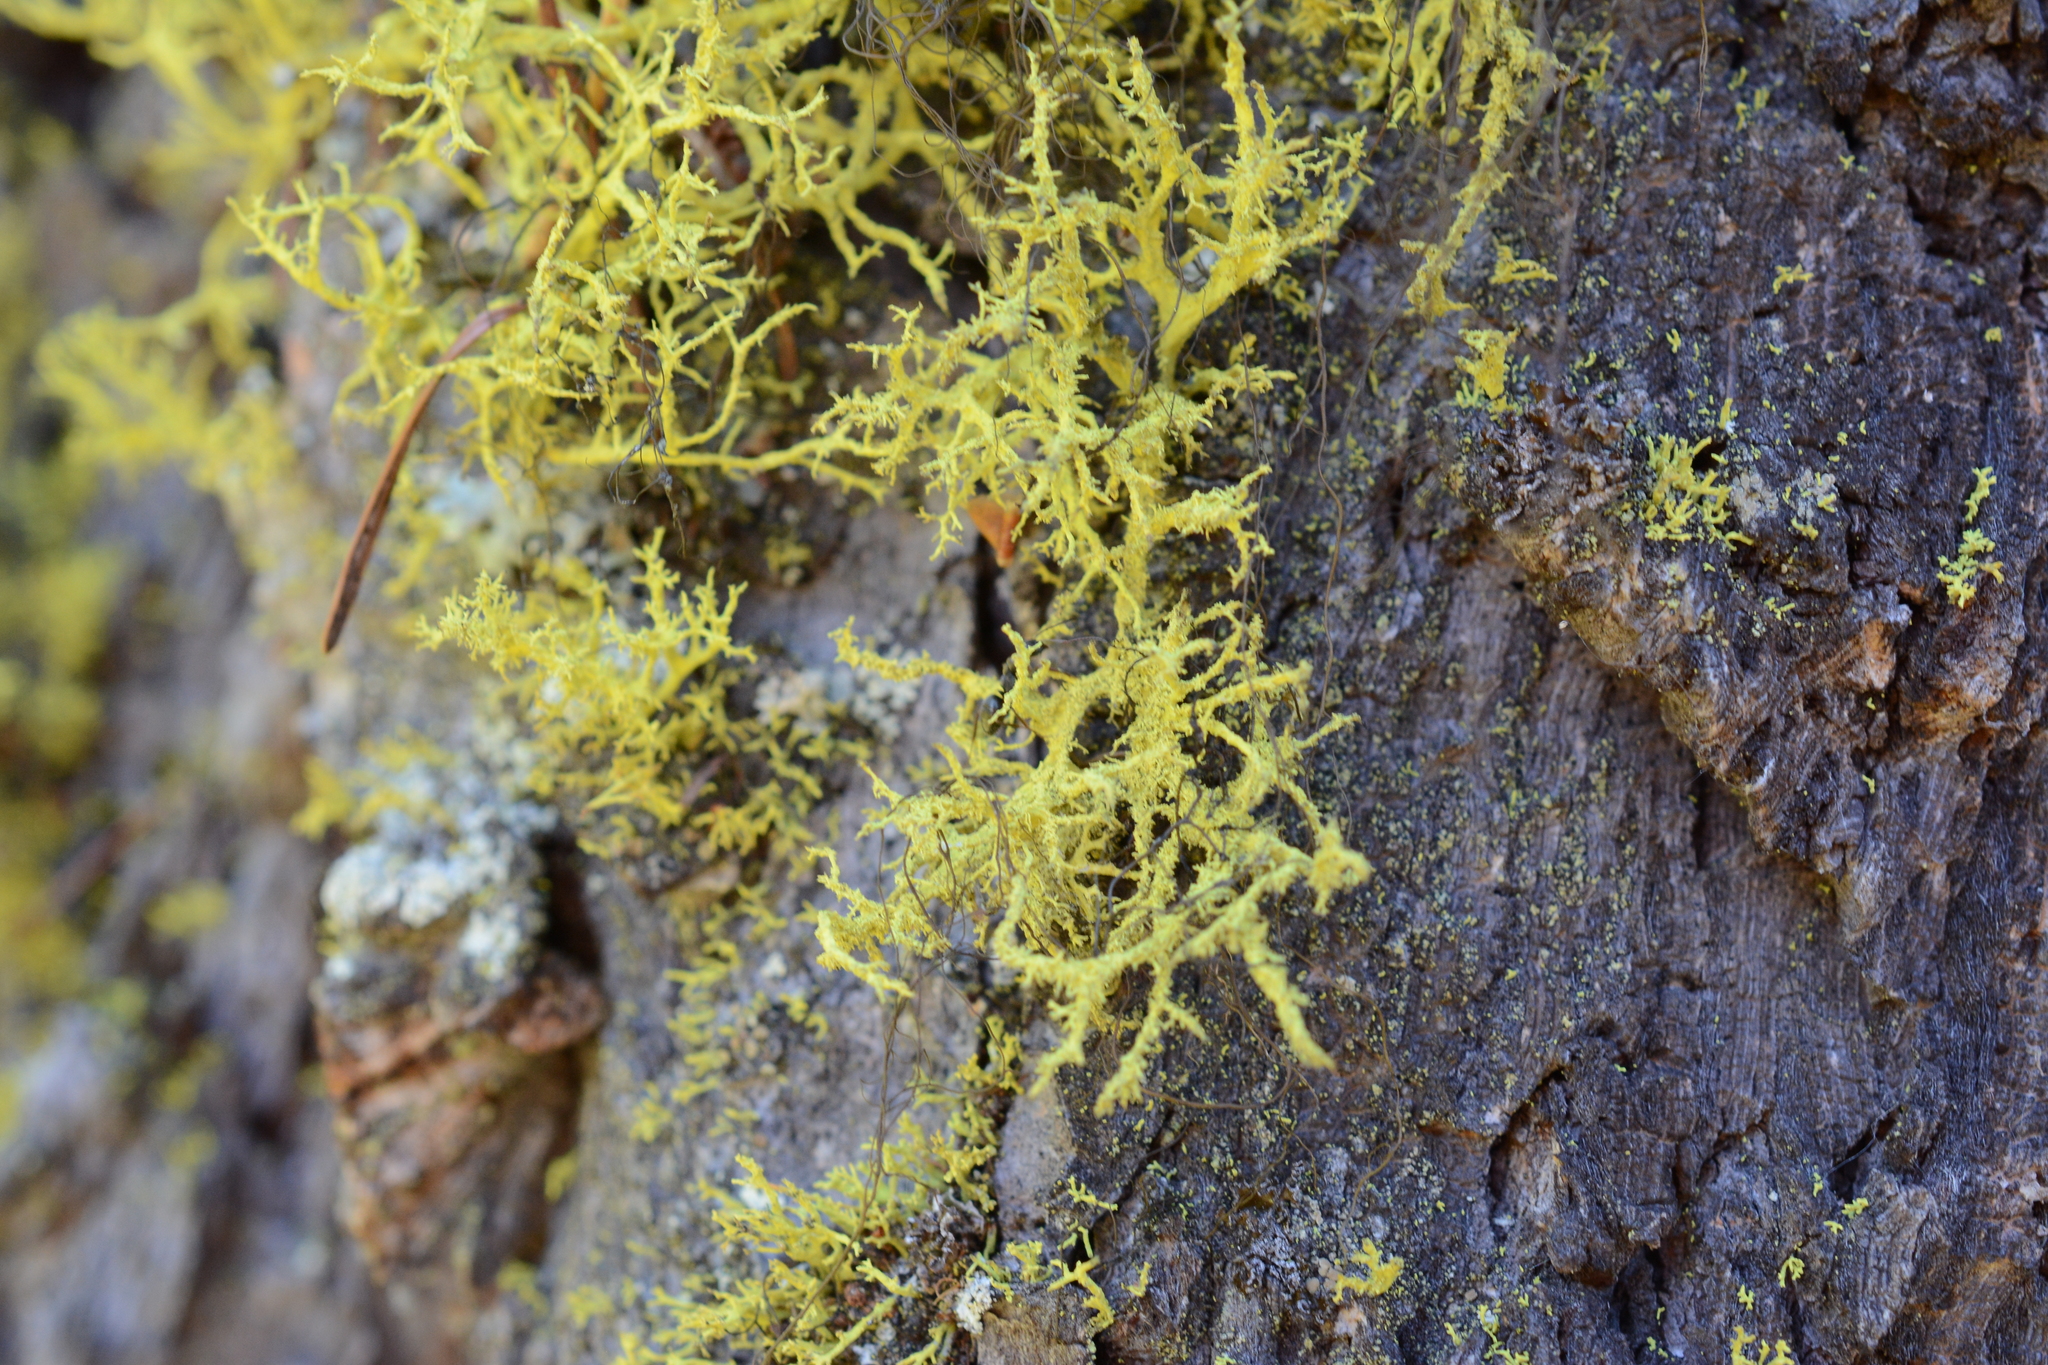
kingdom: Fungi
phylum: Ascomycota
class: Lecanoromycetes
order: Lecanorales
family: Parmeliaceae
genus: Letharia
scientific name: Letharia lupina
